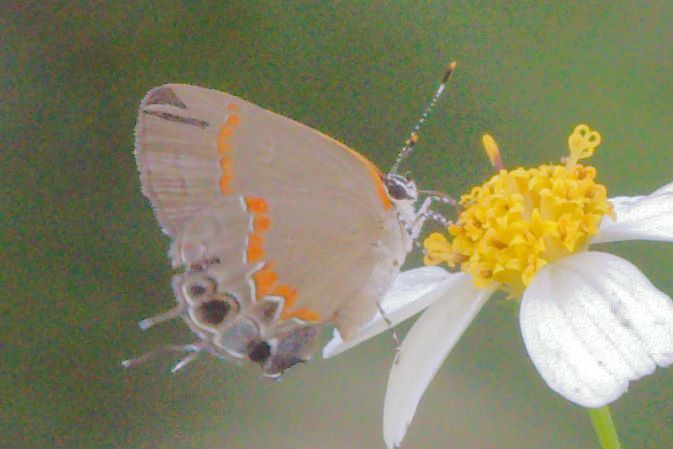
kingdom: Animalia
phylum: Arthropoda
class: Insecta
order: Lepidoptera
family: Lycaenidae
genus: Calycopis
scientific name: Calycopis cecrops
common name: Red-banded hairstreak
